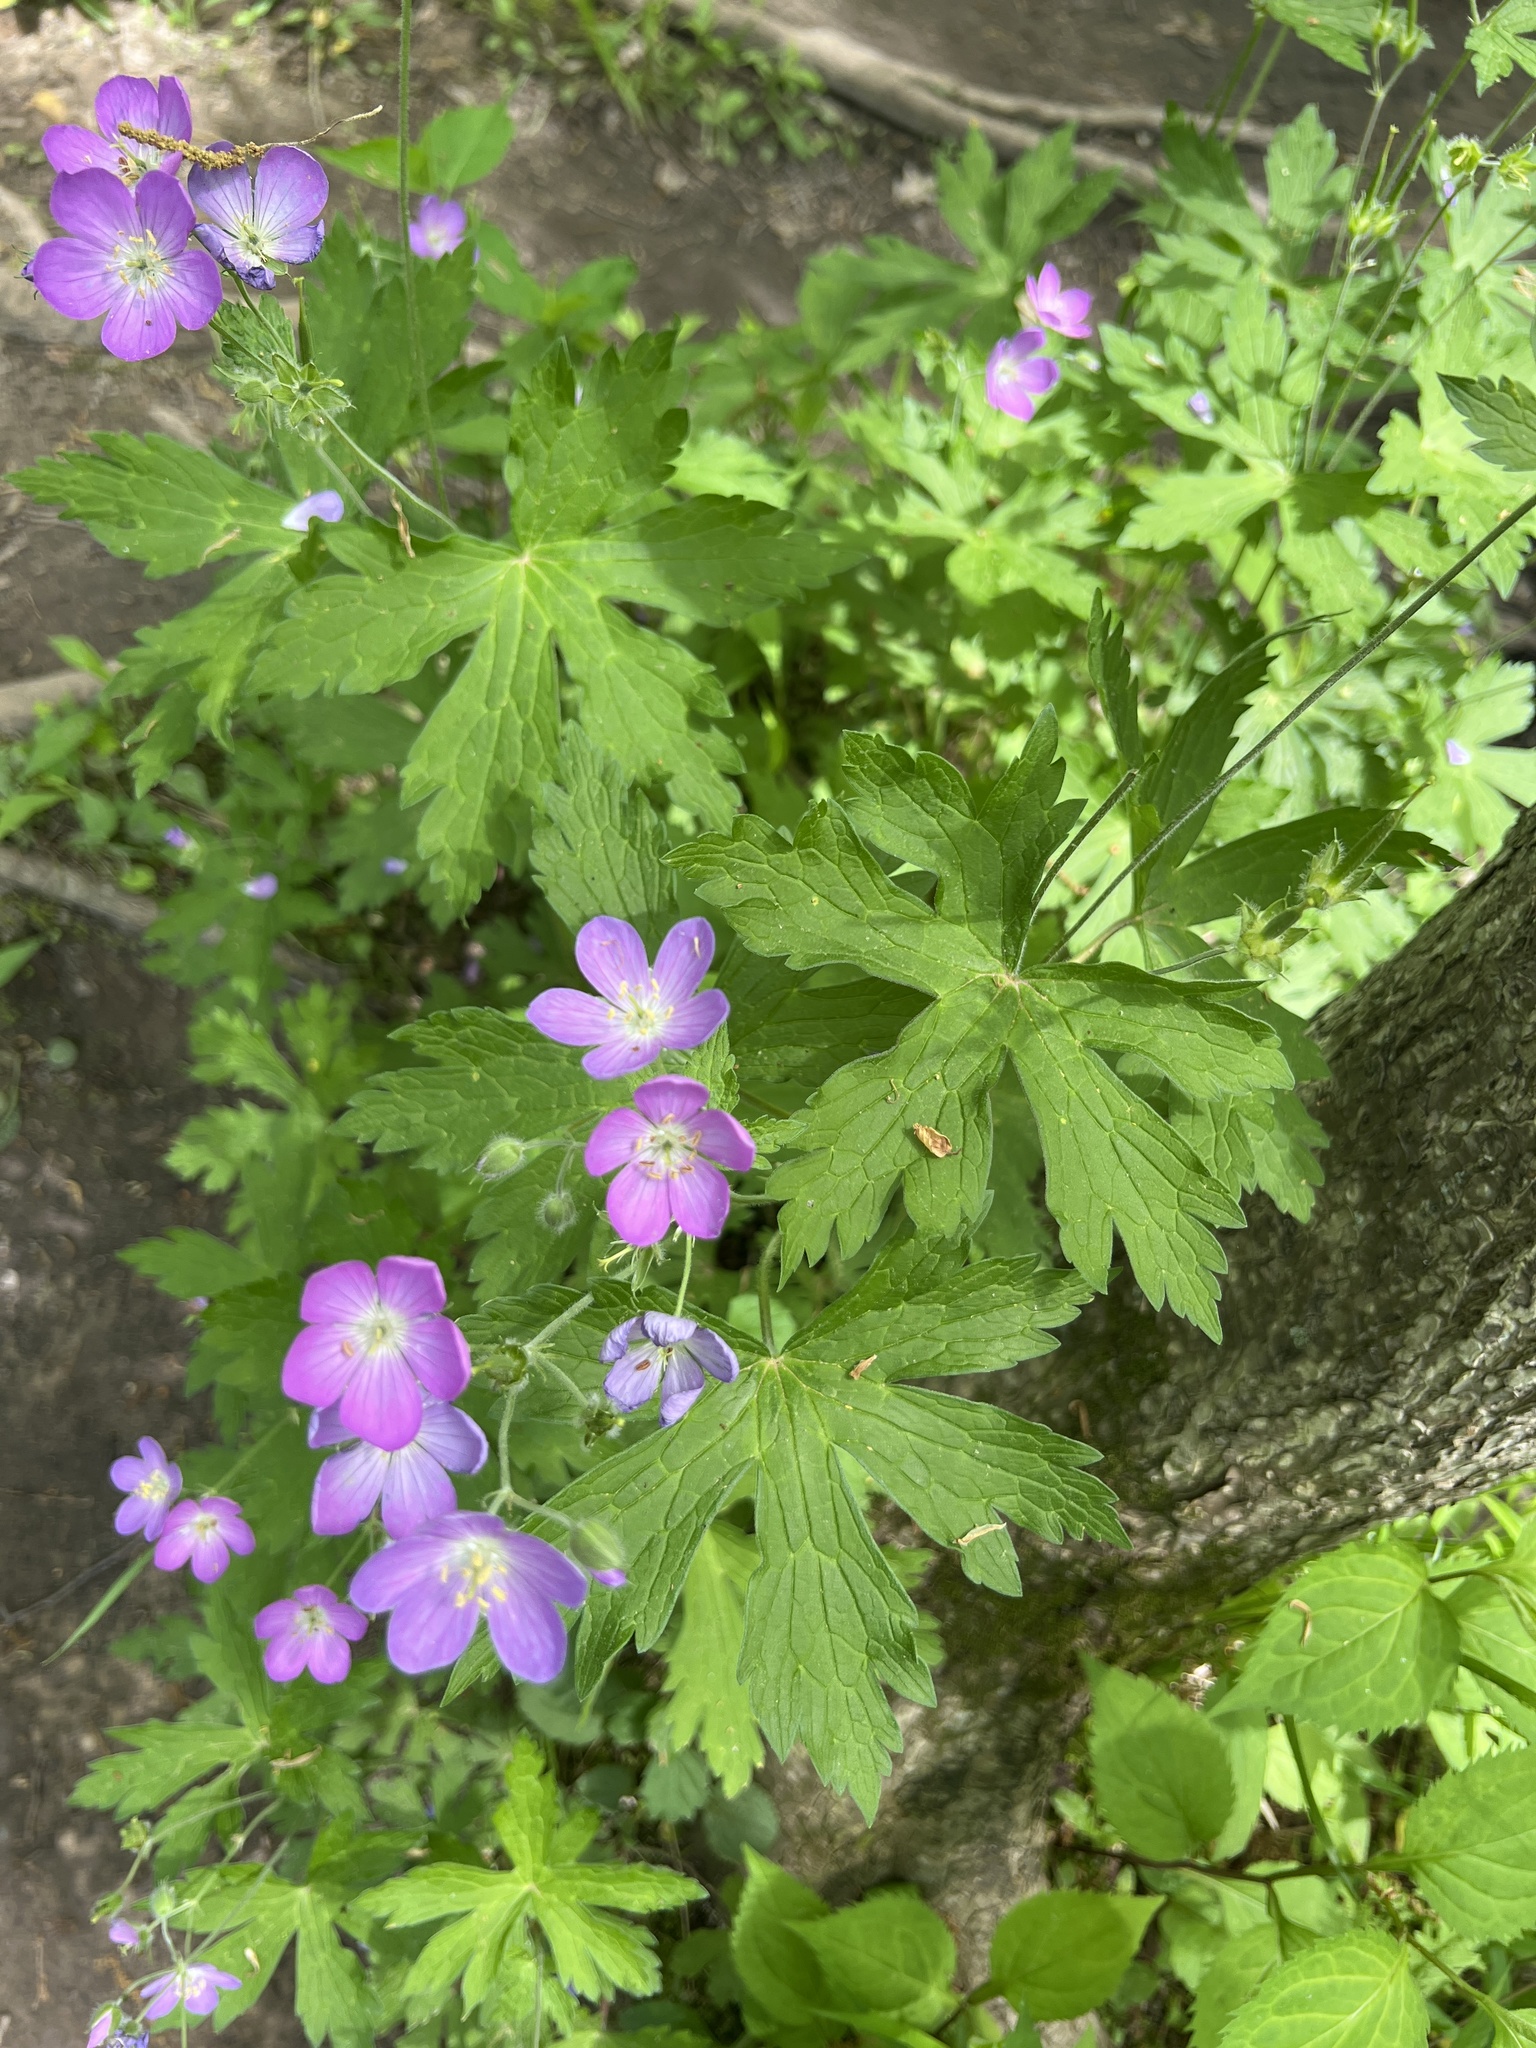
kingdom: Plantae
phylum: Tracheophyta
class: Magnoliopsida
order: Geraniales
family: Geraniaceae
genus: Geranium
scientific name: Geranium maculatum
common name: Spotted geranium
